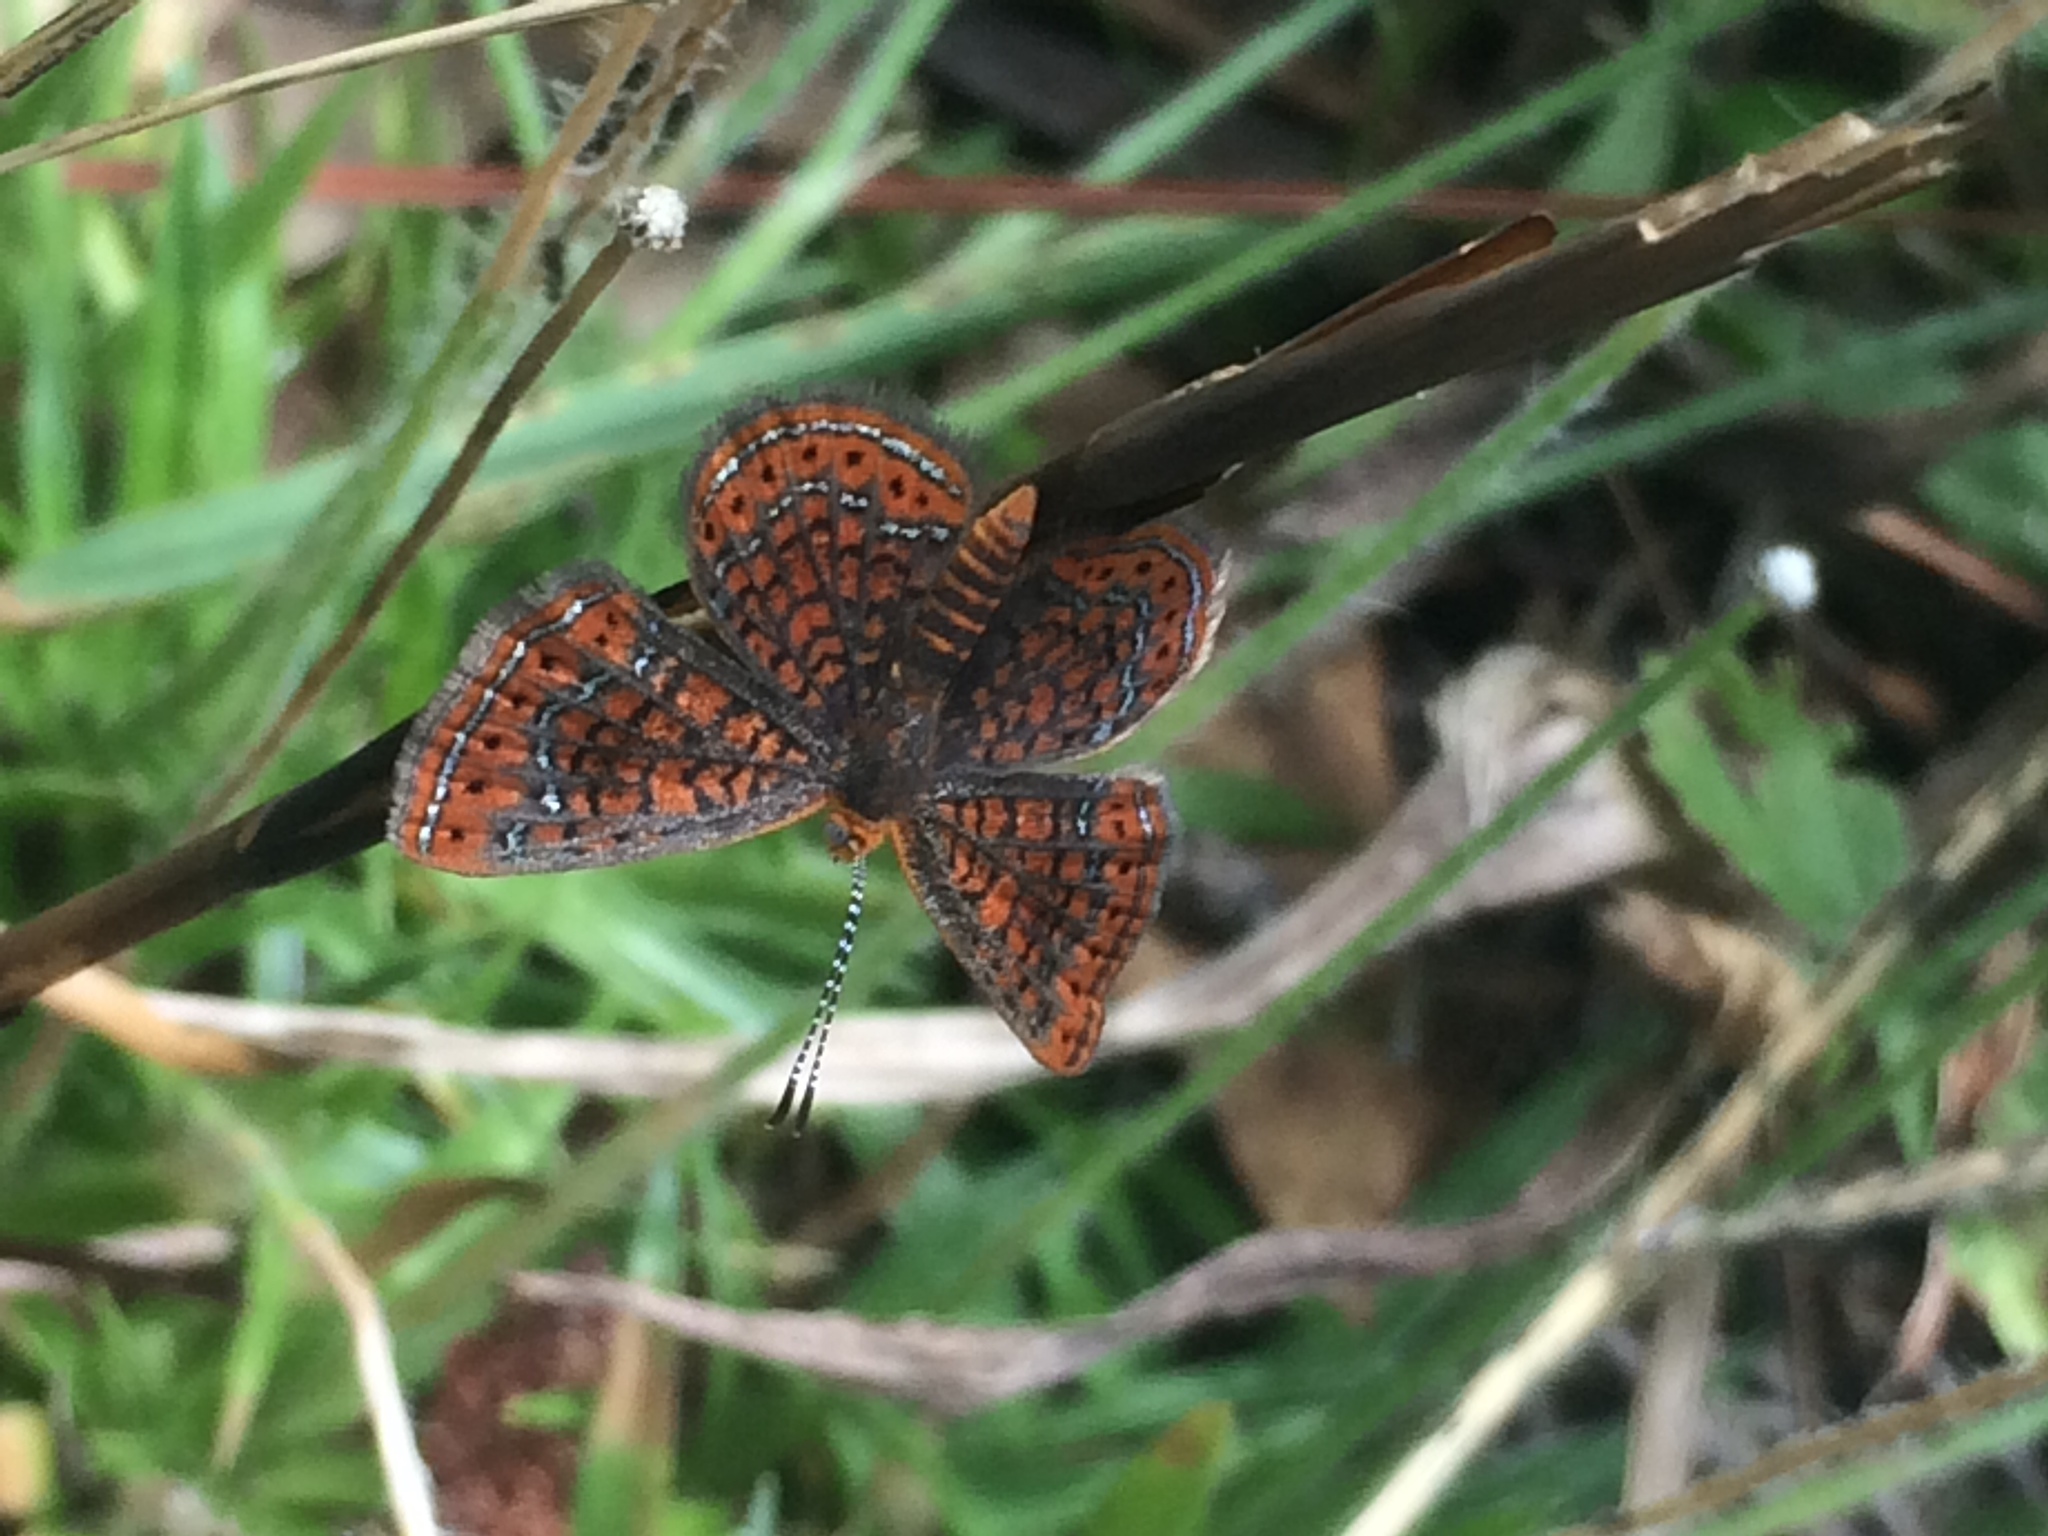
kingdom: Animalia
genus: Calephelis
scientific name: Calephelis virginiensis
